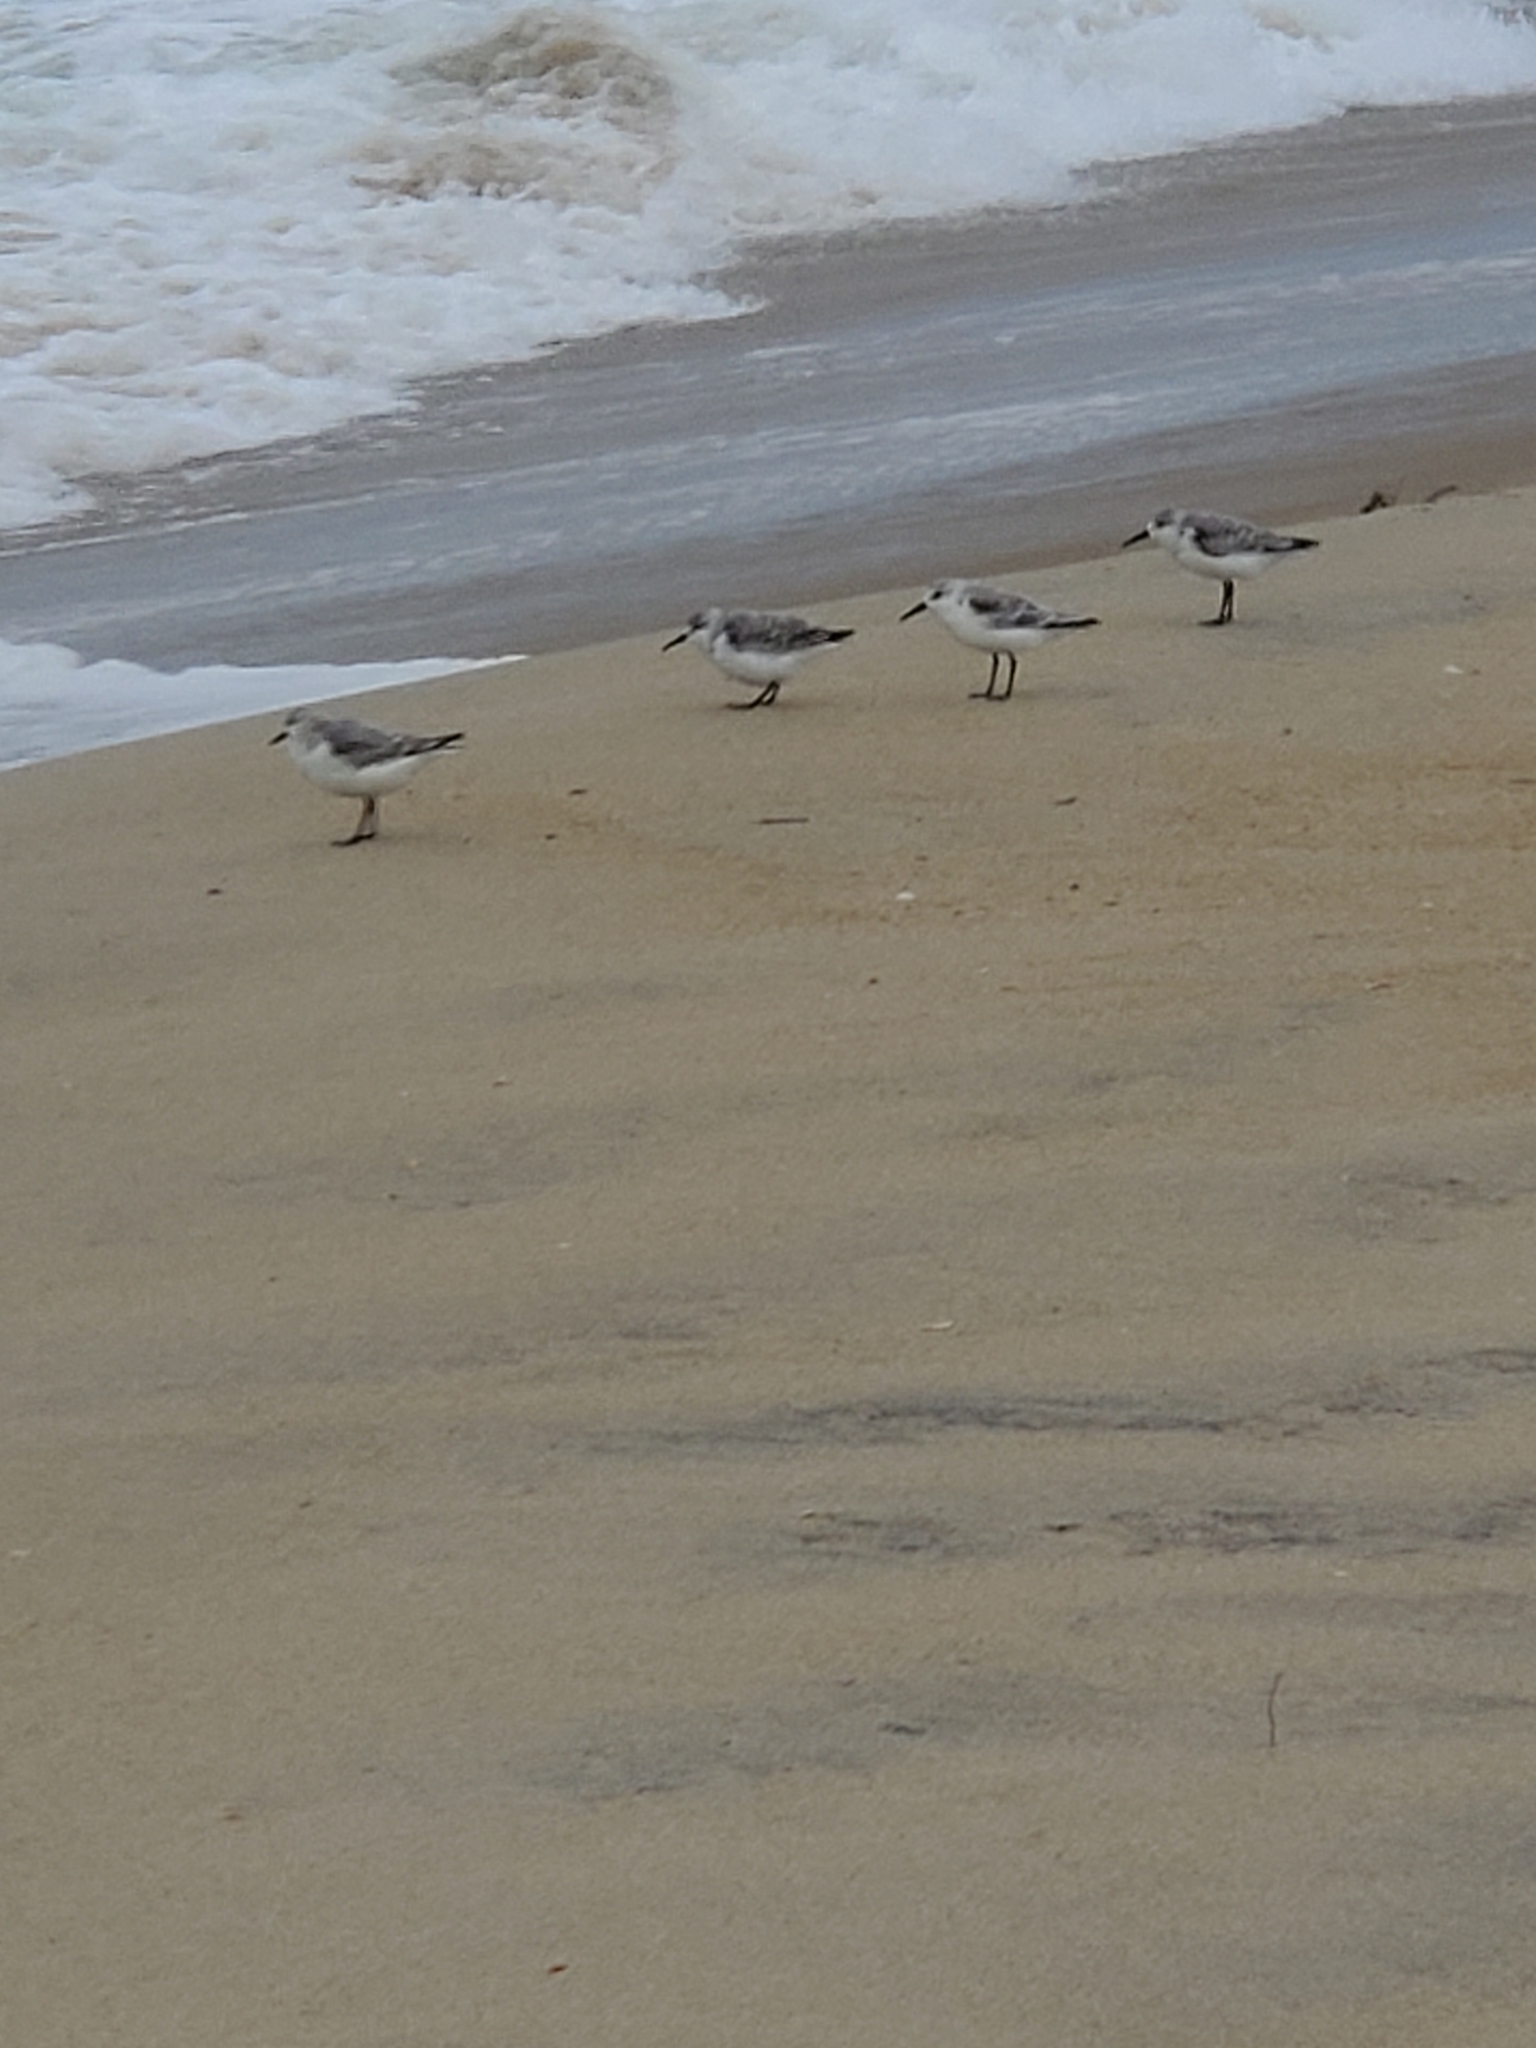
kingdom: Animalia
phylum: Chordata
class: Aves
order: Charadriiformes
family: Scolopacidae
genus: Calidris
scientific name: Calidris alba
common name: Sanderling
